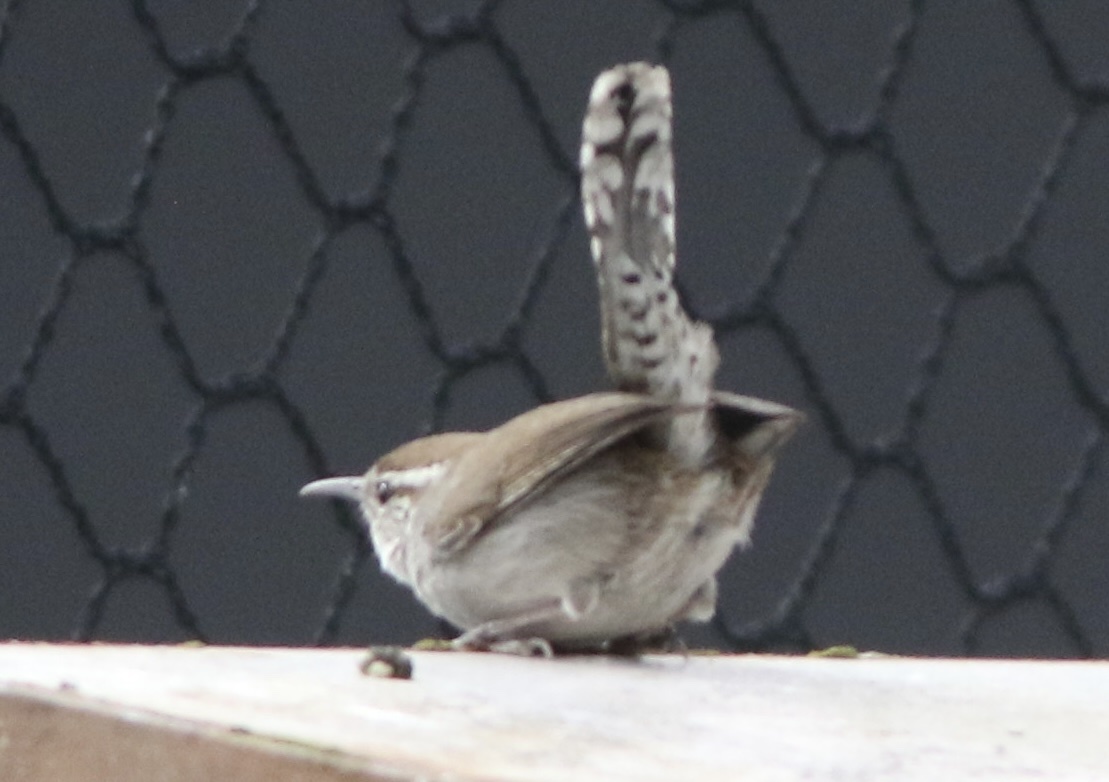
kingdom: Animalia
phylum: Chordata
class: Aves
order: Passeriformes
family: Troglodytidae
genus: Thryomanes
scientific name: Thryomanes bewickii
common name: Bewick's wren
